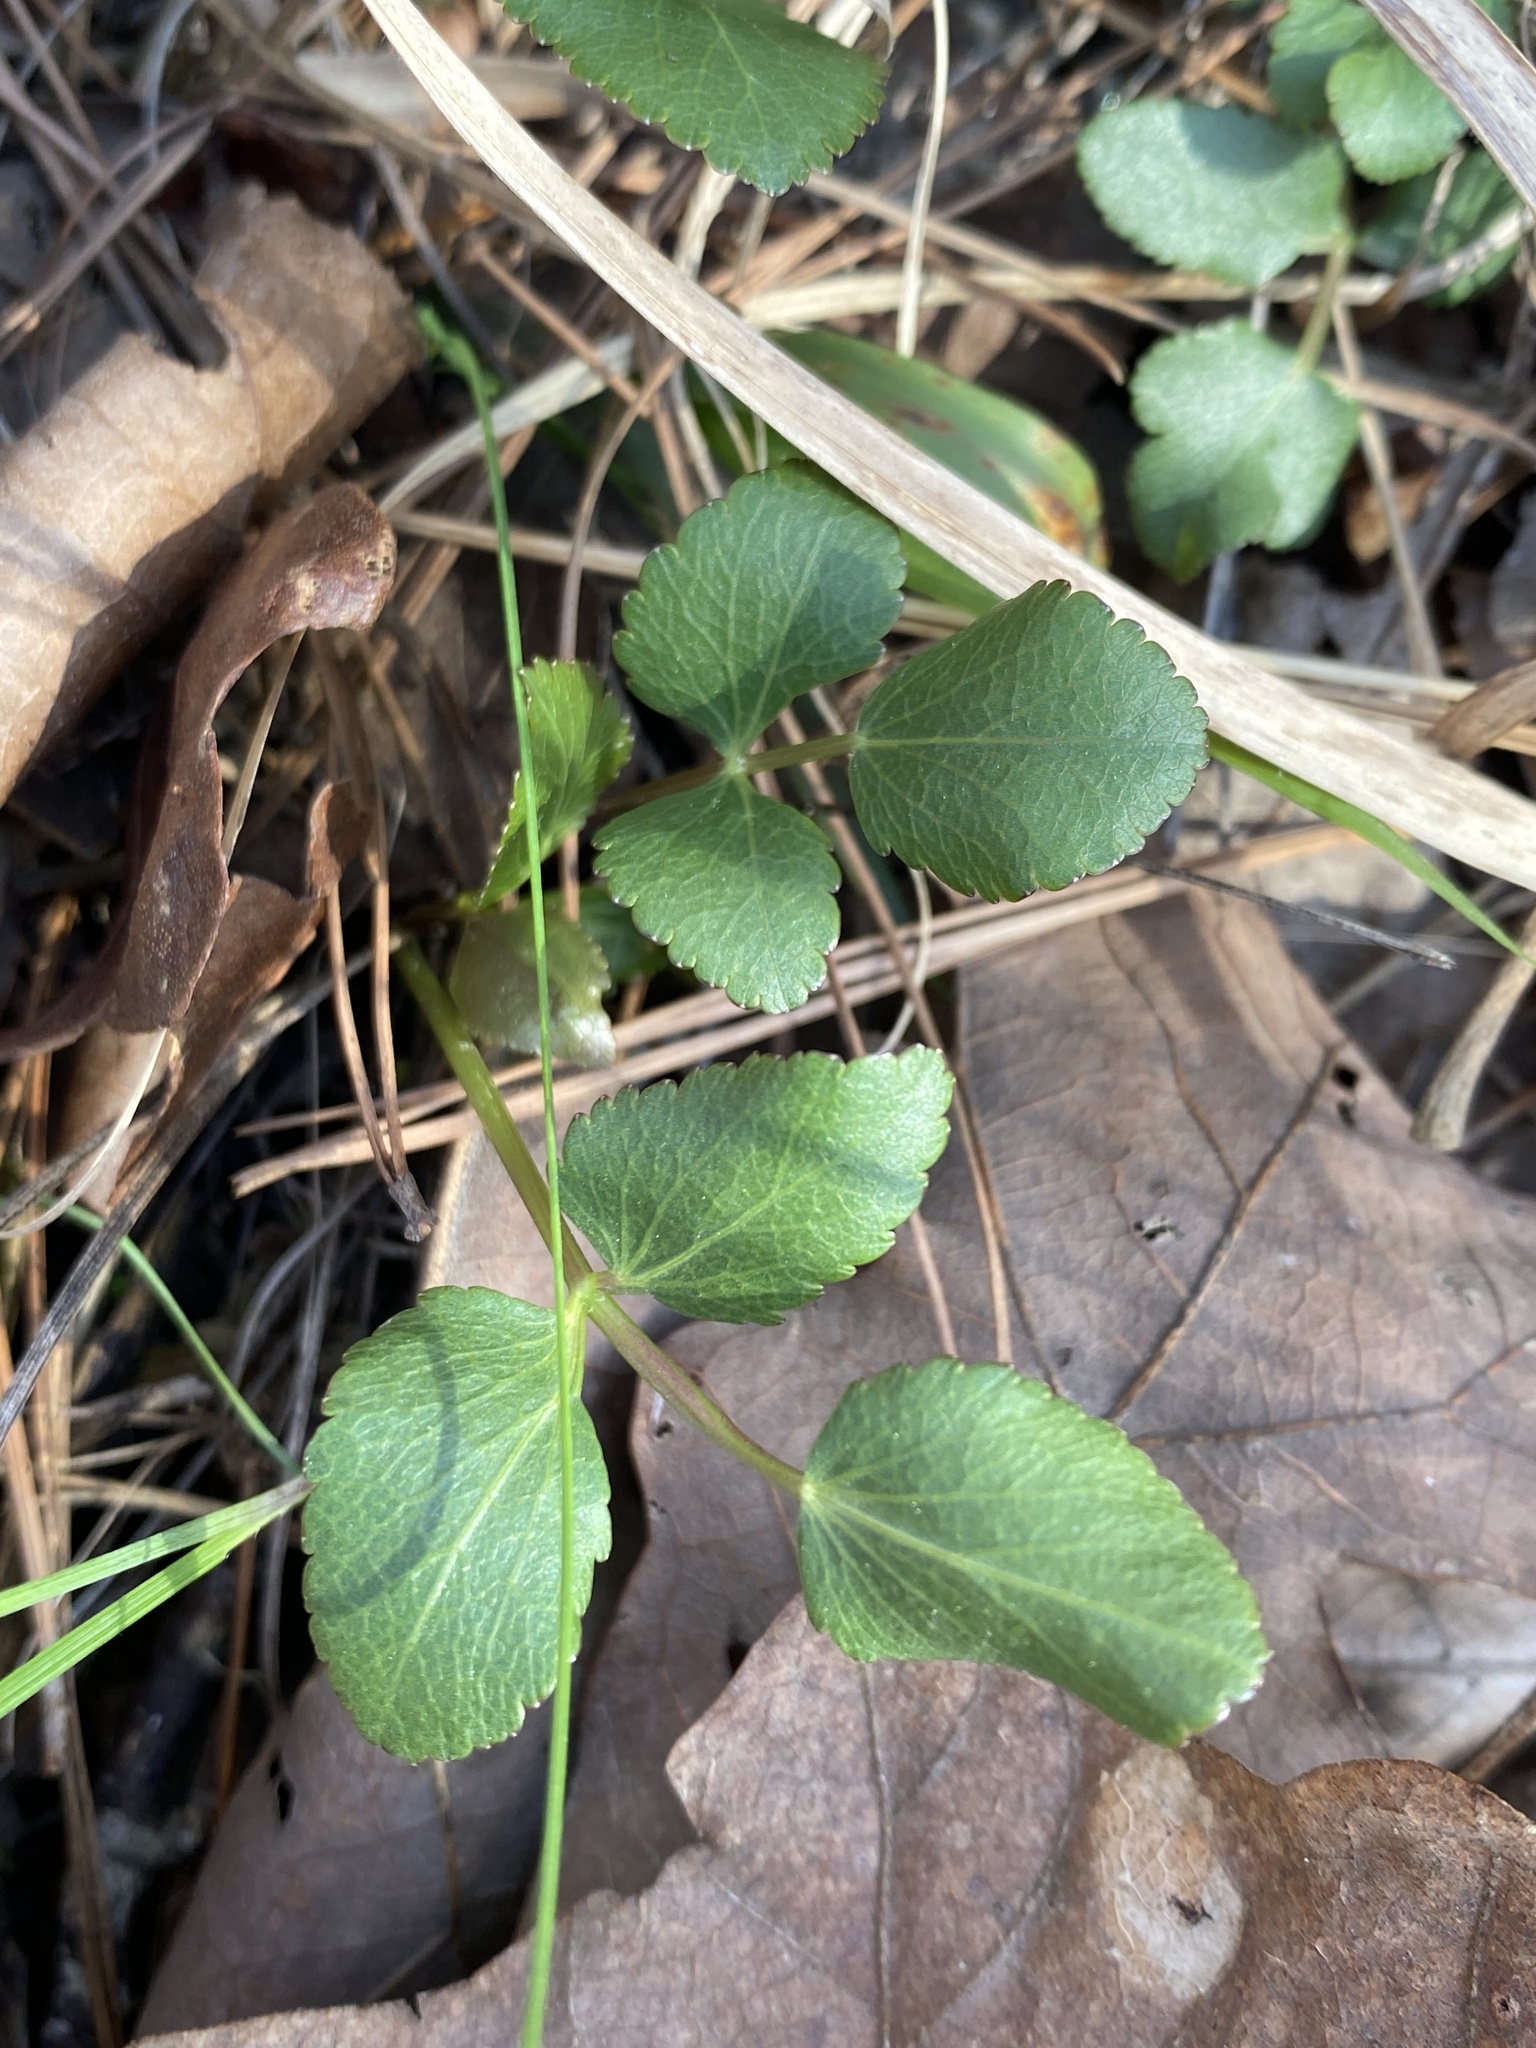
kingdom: Plantae
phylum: Tracheophyta
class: Magnoliopsida
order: Apiales
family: Apiaceae
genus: Zizia
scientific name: Zizia aptera
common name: Heart-leaved alexanders
